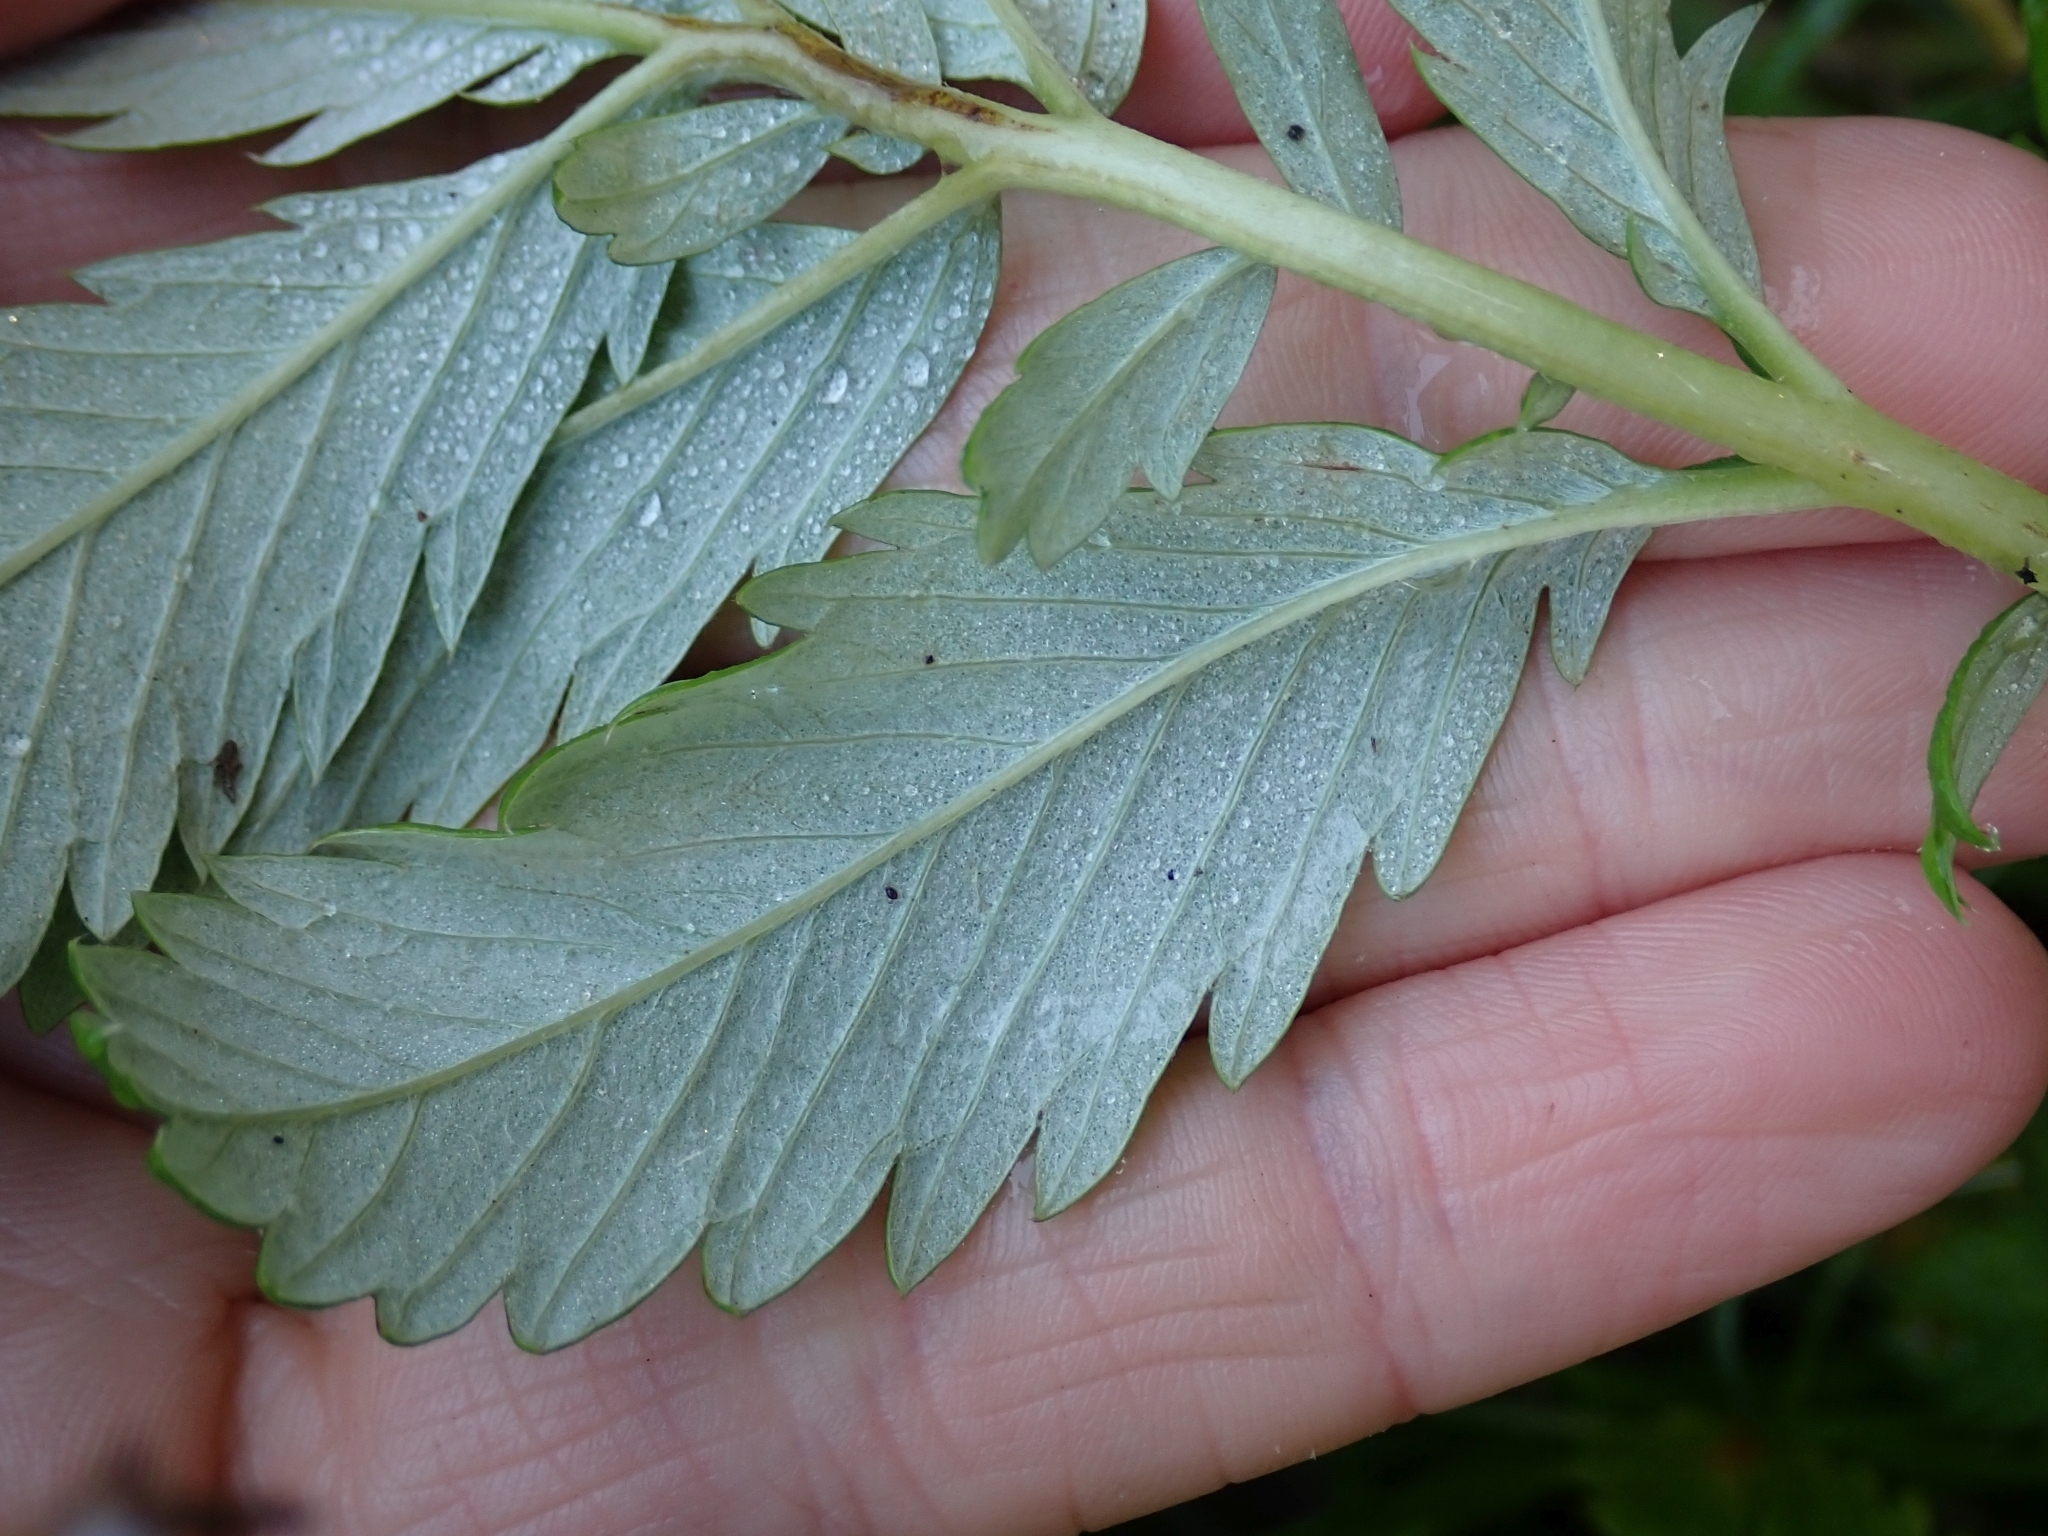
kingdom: Plantae
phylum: Tracheophyta
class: Magnoliopsida
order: Rosales
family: Rosaceae
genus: Argentina
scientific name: Argentina anserina
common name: Common silverweed
